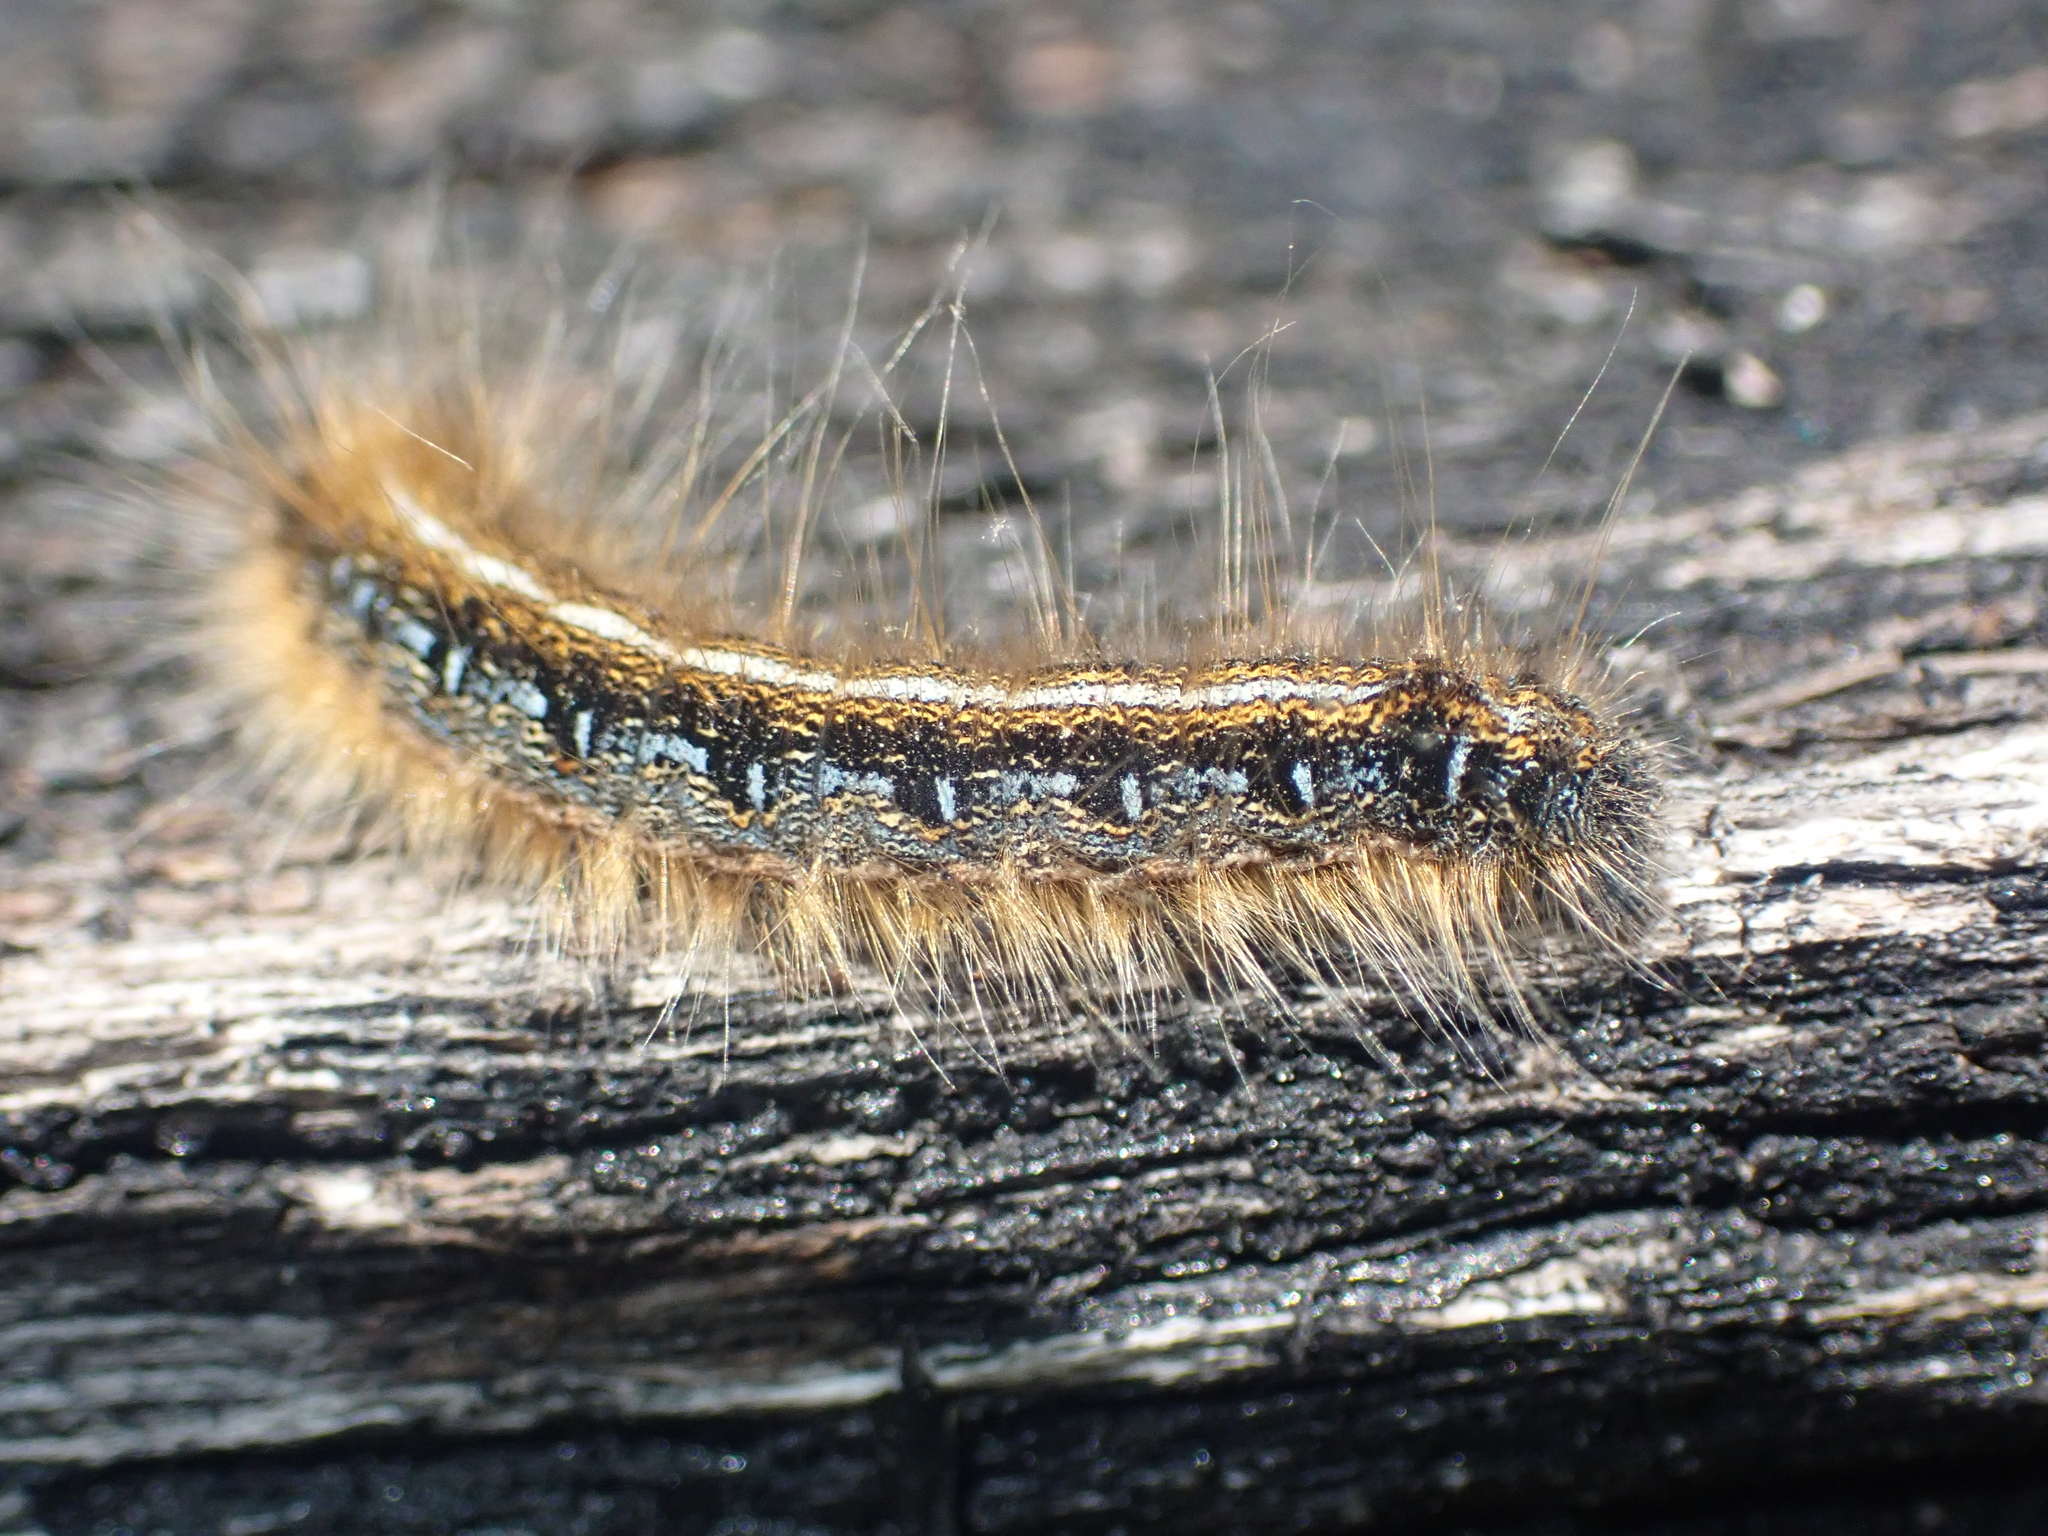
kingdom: Animalia
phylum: Arthropoda
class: Insecta
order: Lepidoptera
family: Lasiocampidae
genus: Malacosoma
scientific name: Malacosoma americana
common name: Eastern tent caterpillar moth
